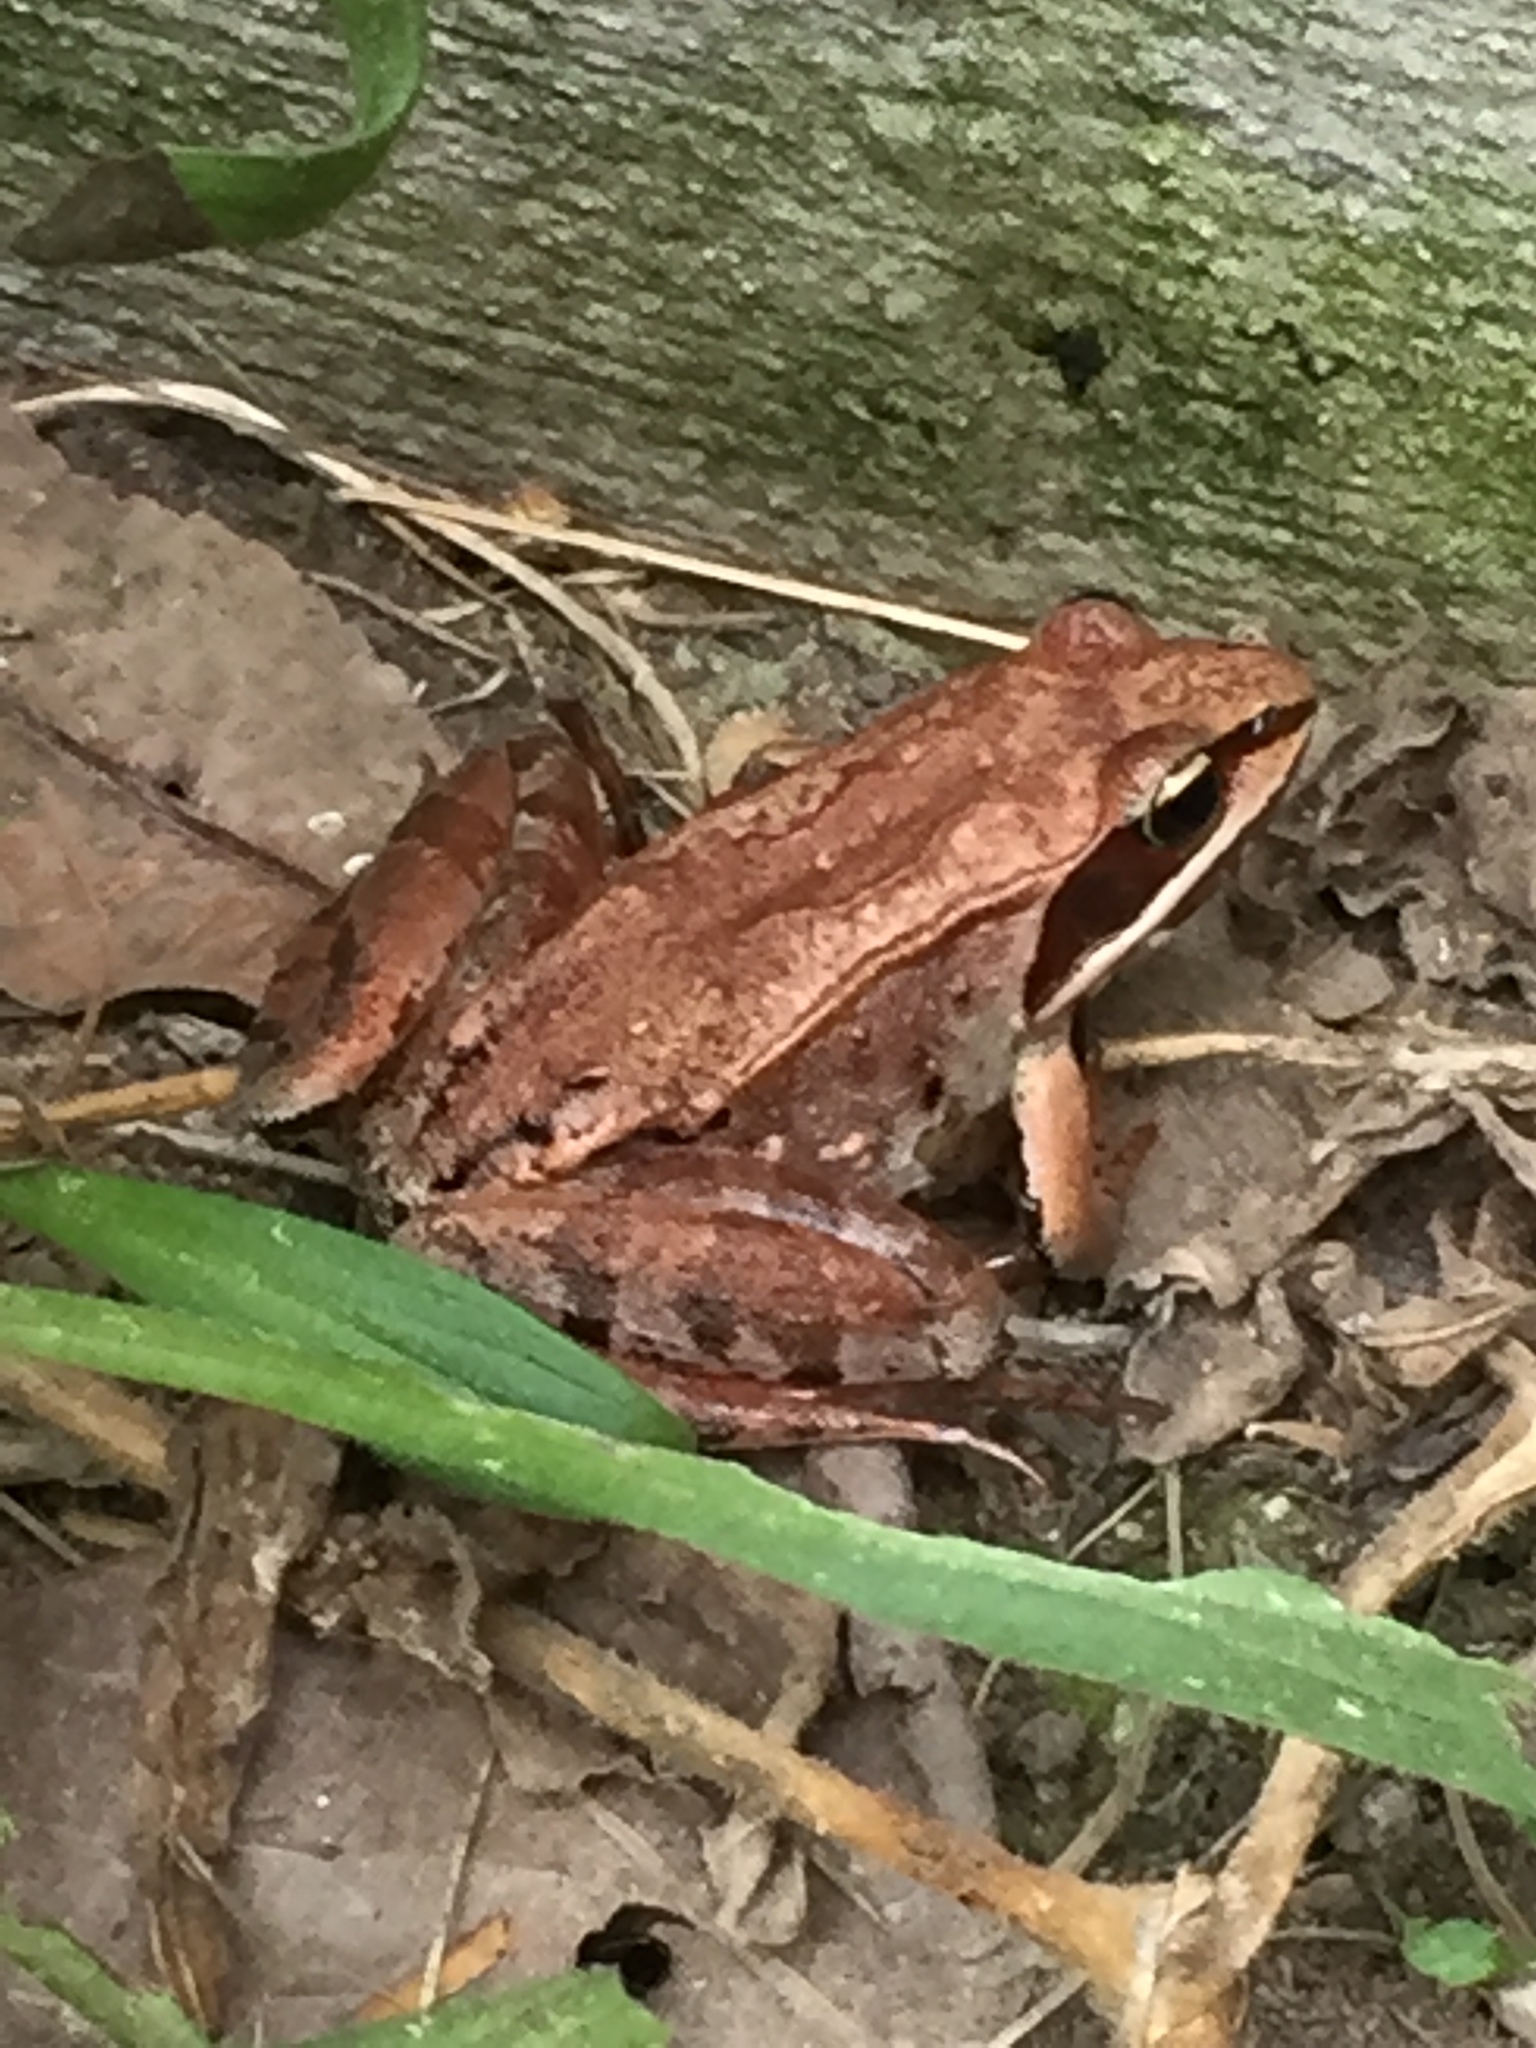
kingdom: Animalia
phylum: Chordata
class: Amphibia
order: Anura
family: Ranidae
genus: Lithobates
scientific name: Lithobates sylvaticus
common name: Wood frog
